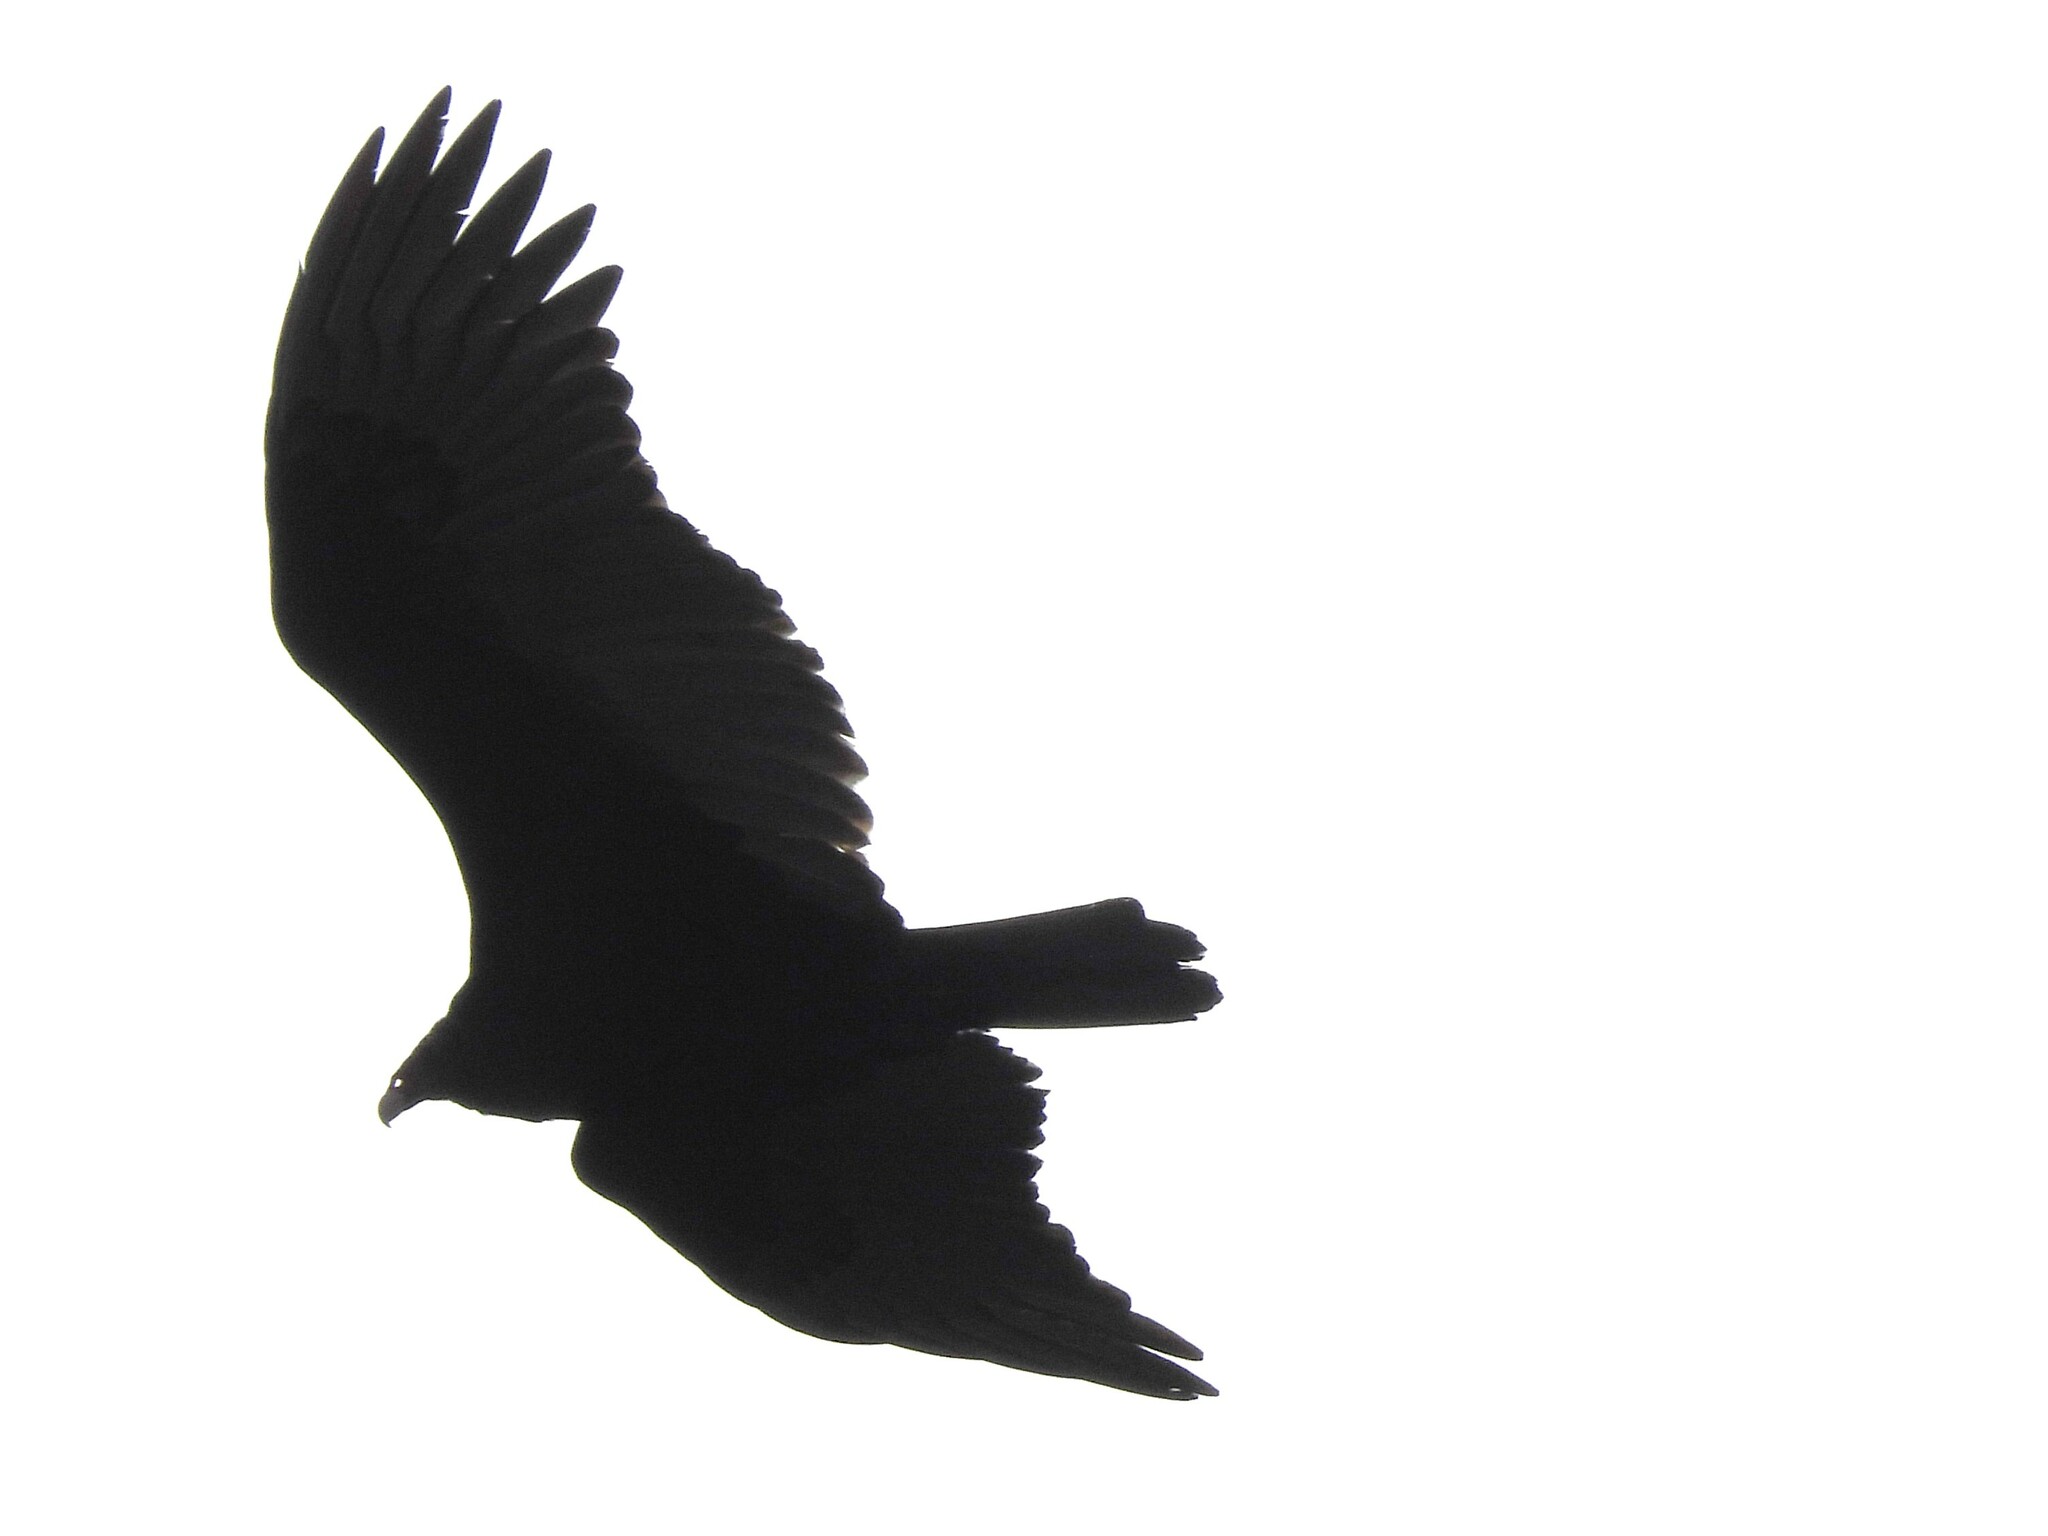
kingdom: Animalia
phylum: Chordata
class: Aves
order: Accipitriformes
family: Cathartidae
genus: Cathartes
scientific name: Cathartes aura
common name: Turkey vulture
